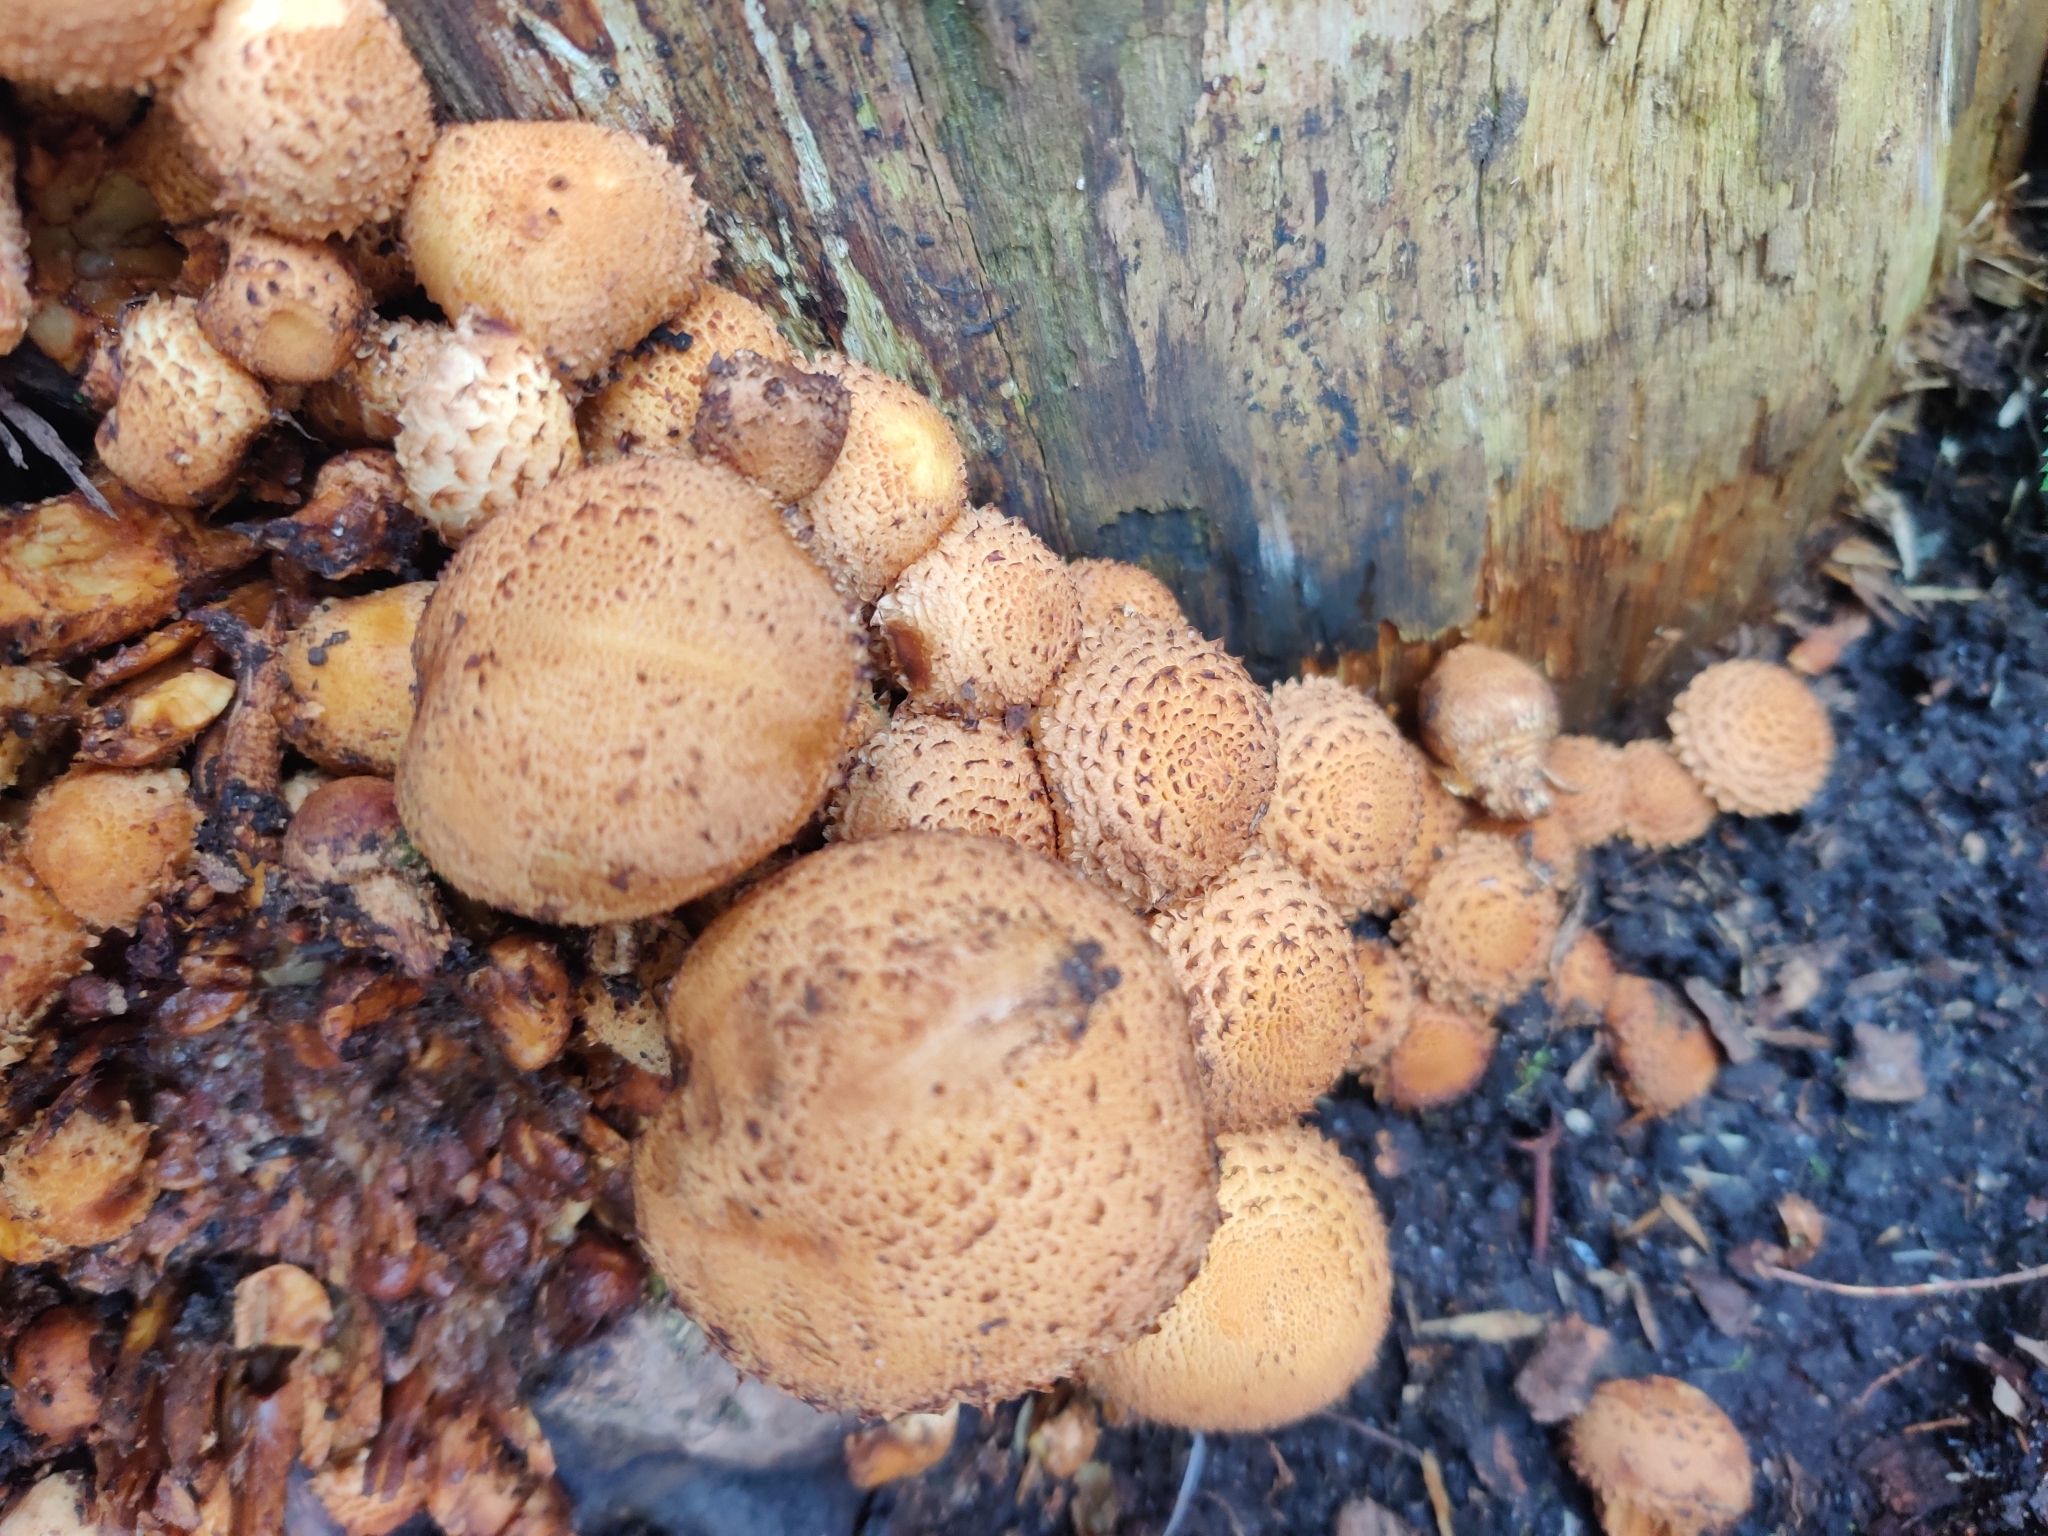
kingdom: Fungi
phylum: Basidiomycota
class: Agaricomycetes
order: Agaricales
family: Strophariaceae
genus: Pholiota
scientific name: Pholiota squarrosa
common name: Shaggy pholiota
